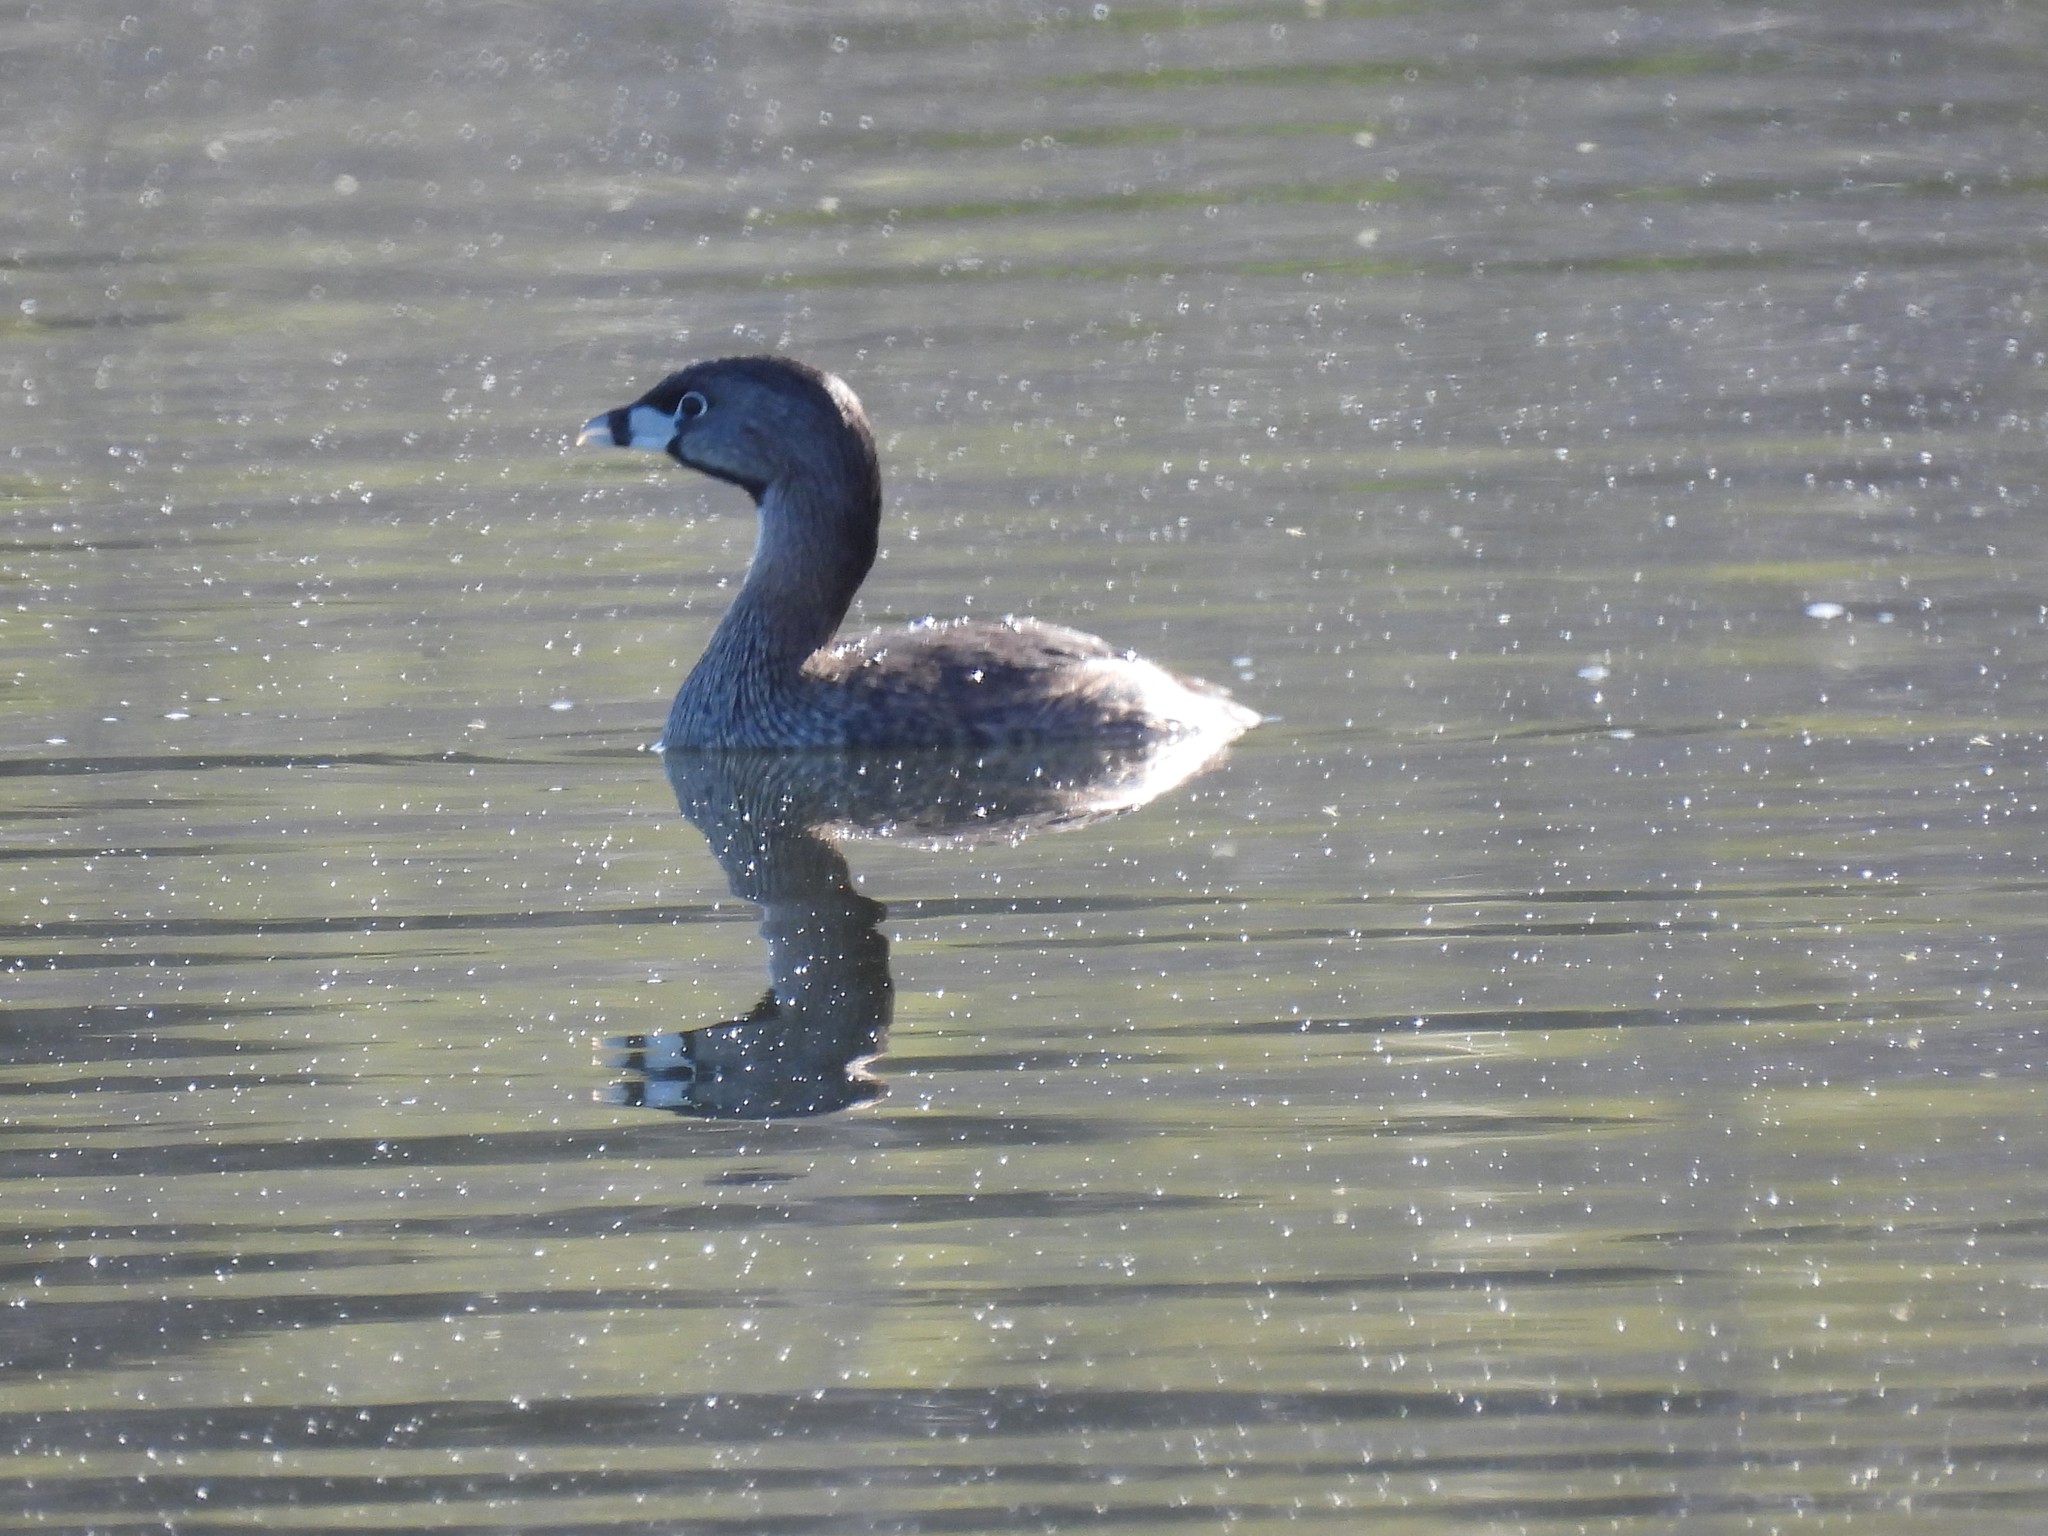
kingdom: Animalia
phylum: Chordata
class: Aves
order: Podicipediformes
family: Podicipedidae
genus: Podilymbus
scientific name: Podilymbus podiceps
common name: Pied-billed grebe
